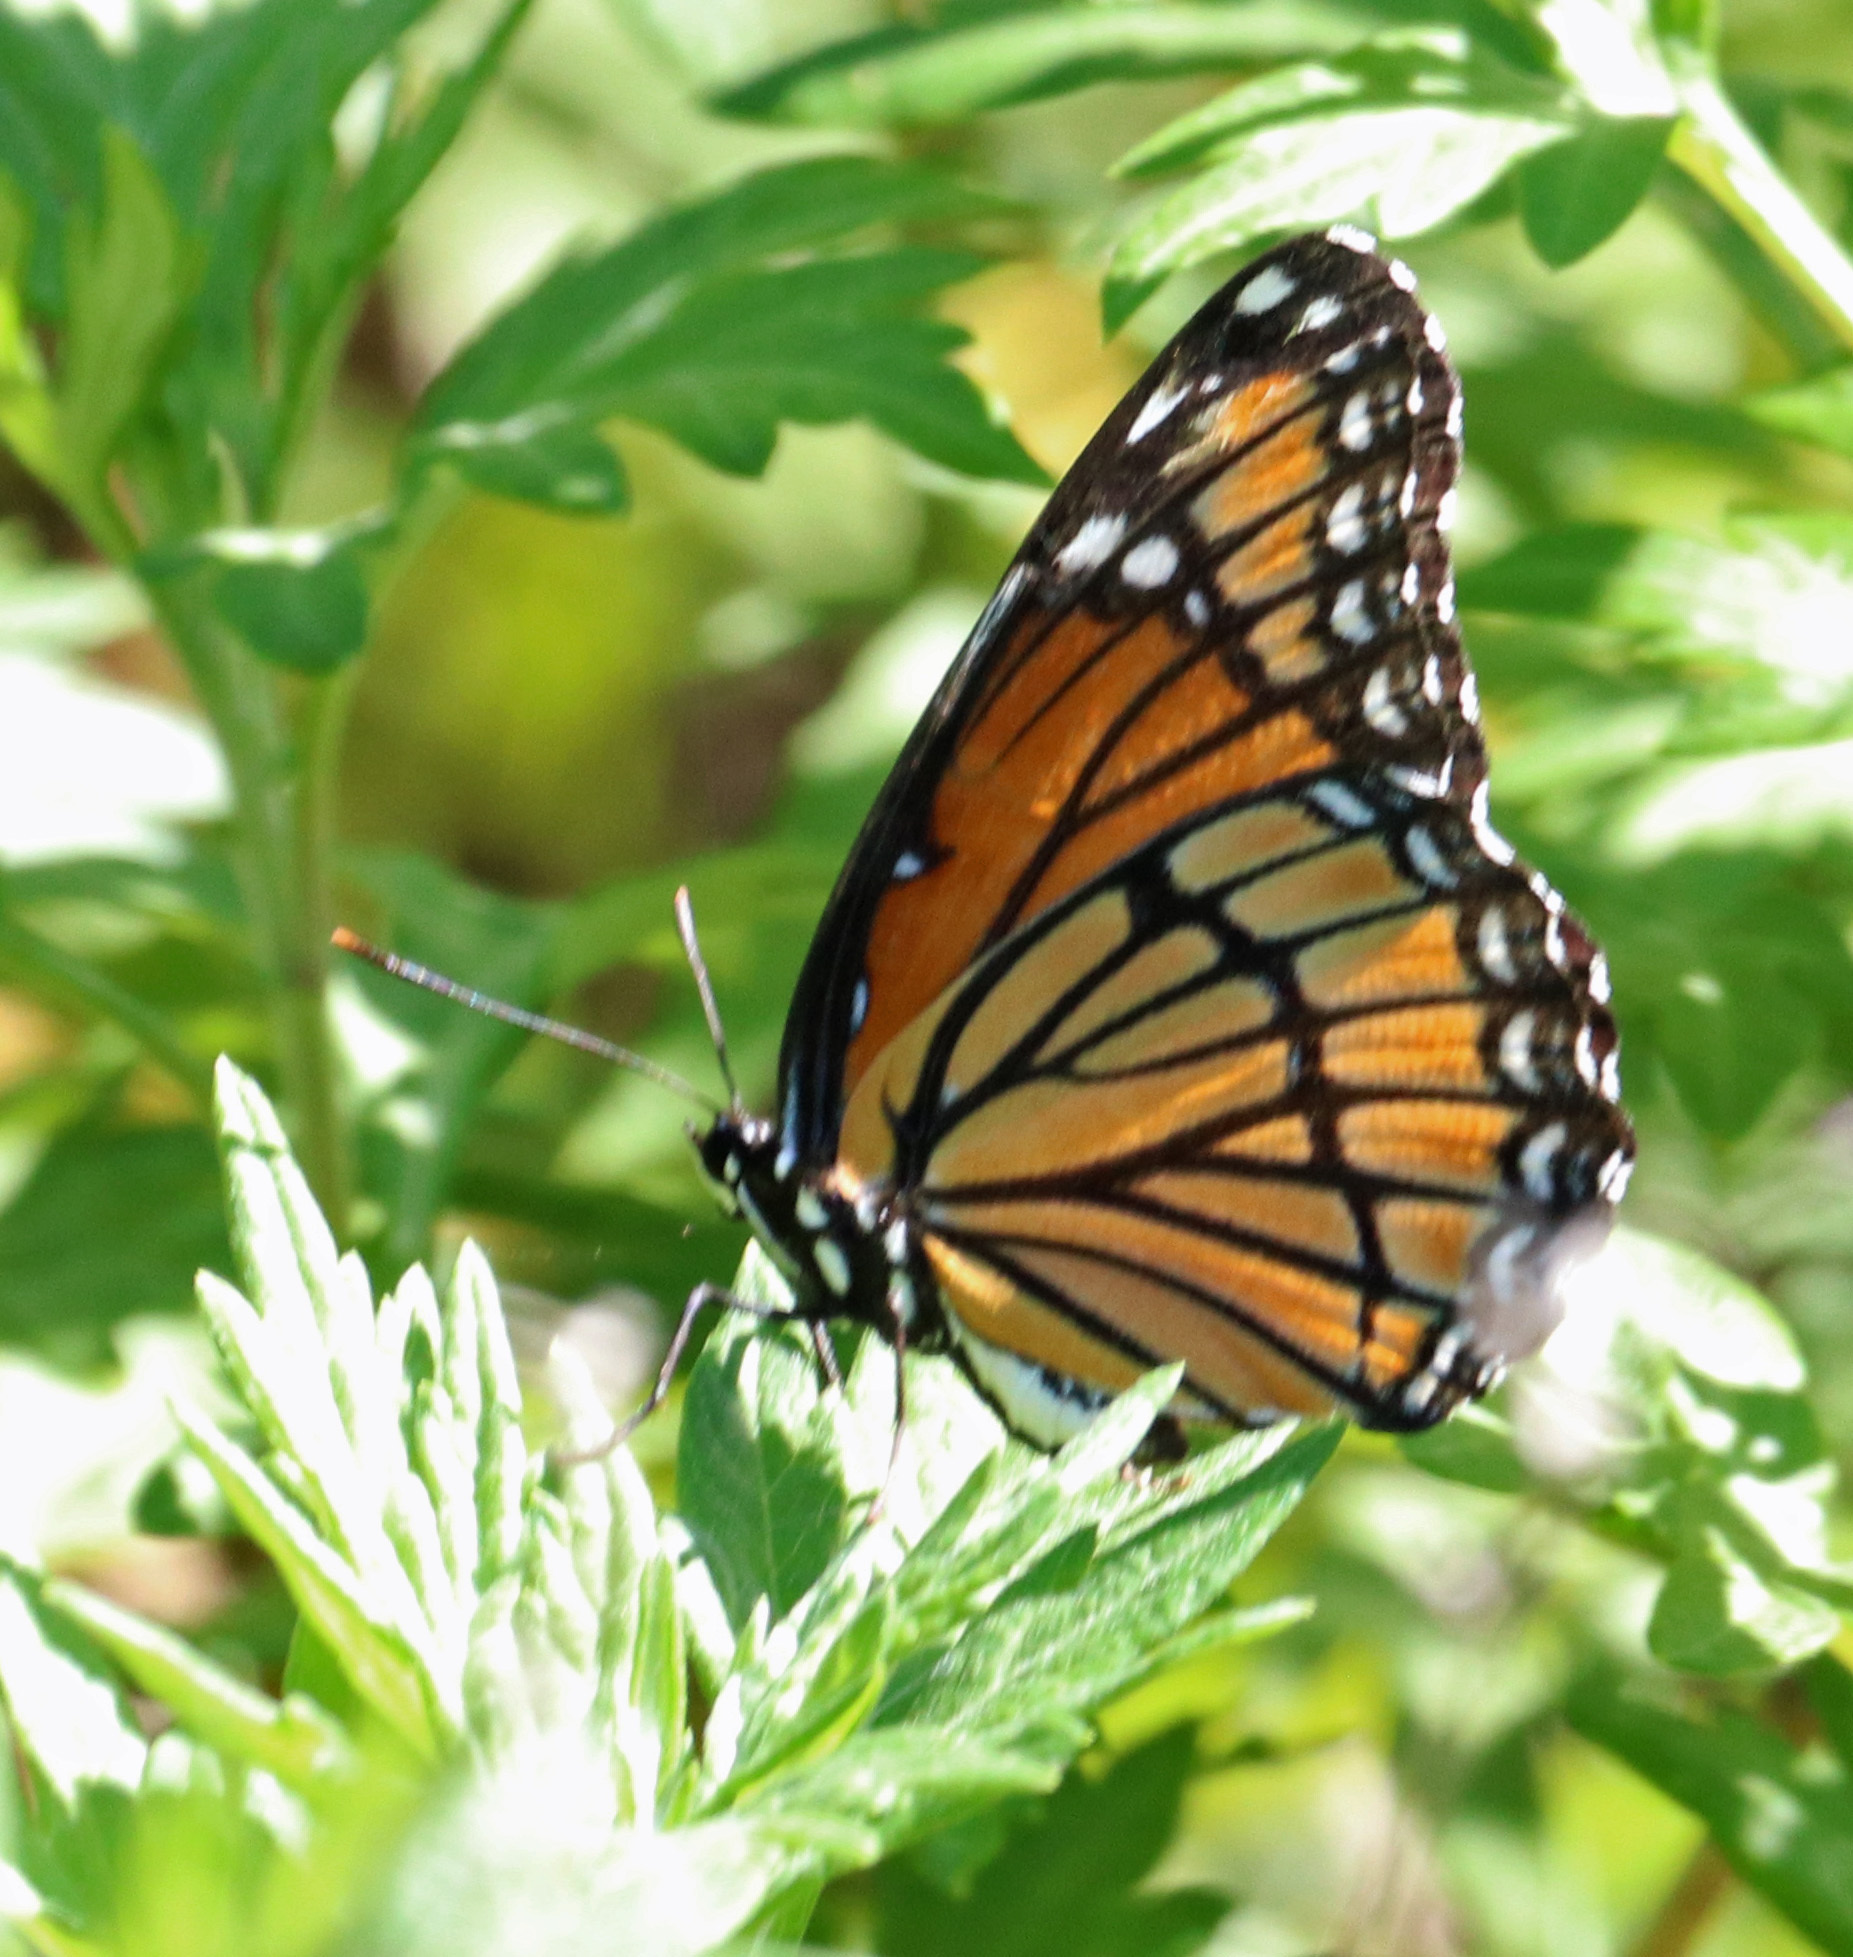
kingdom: Animalia
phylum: Arthropoda
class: Insecta
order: Lepidoptera
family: Nymphalidae
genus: Limenitis
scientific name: Limenitis archippus
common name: Viceroy
